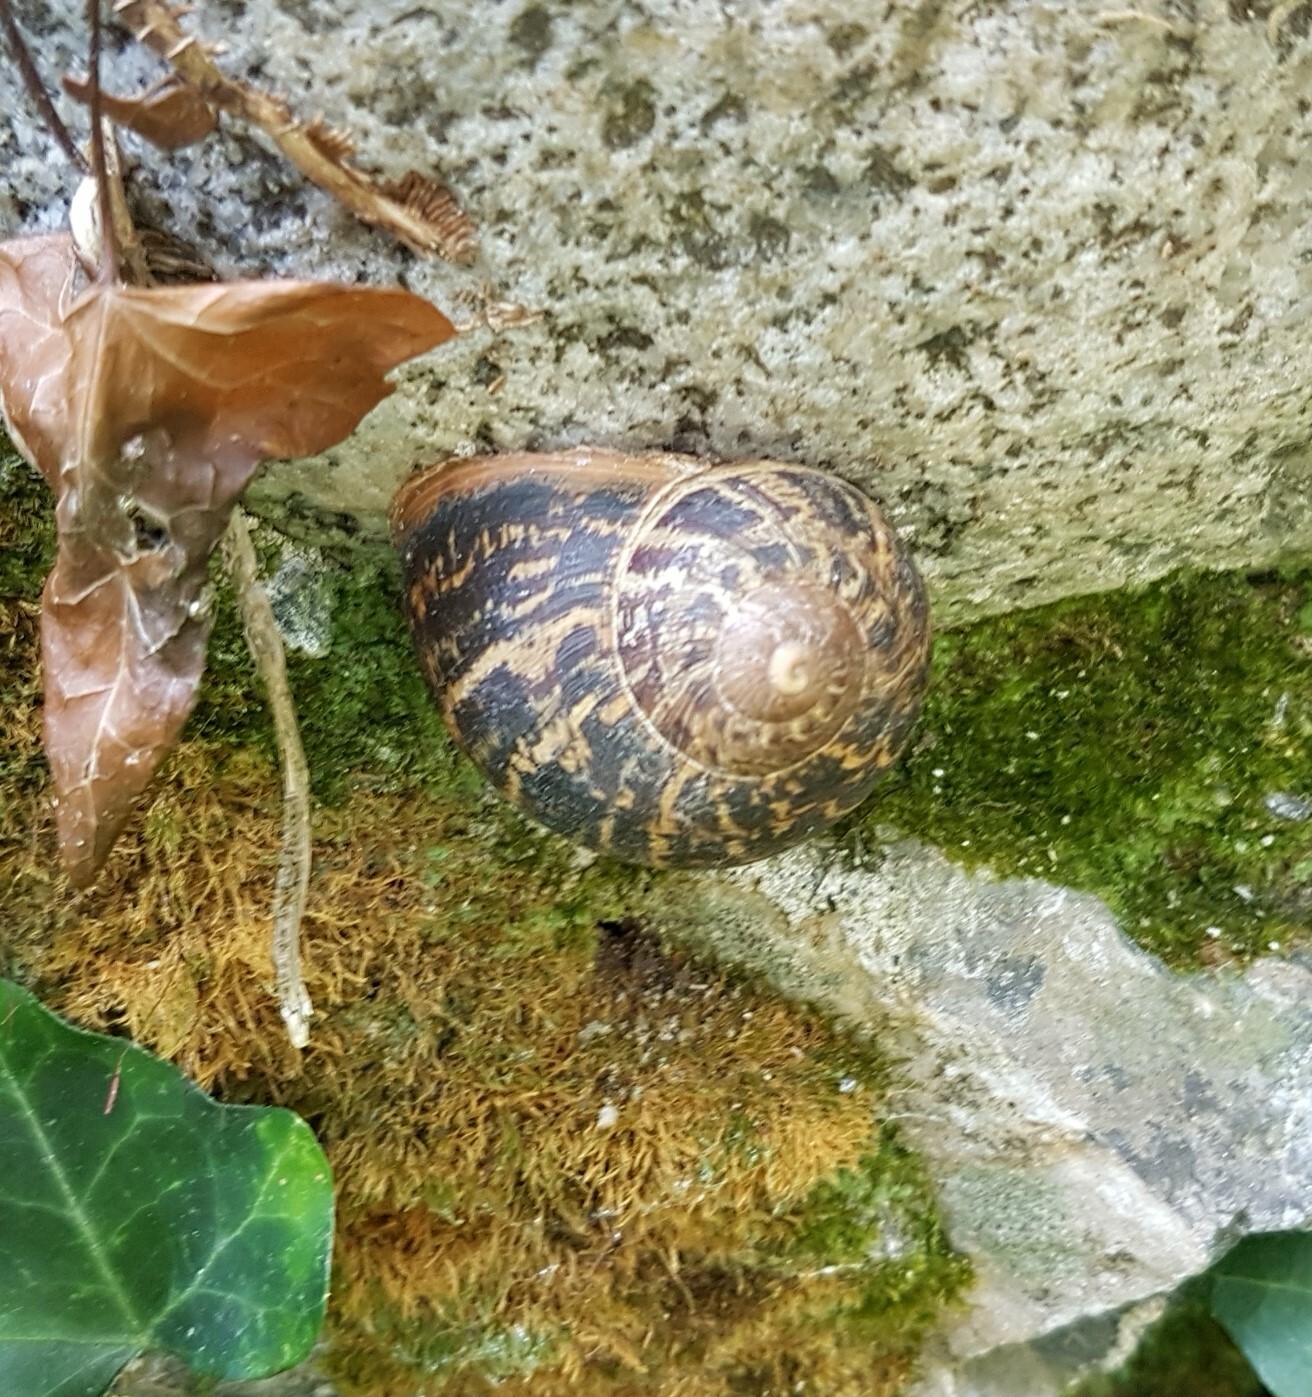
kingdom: Animalia
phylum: Mollusca
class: Gastropoda
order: Stylommatophora
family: Helicidae
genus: Cornu
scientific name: Cornu aspersum
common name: Brown garden snail
